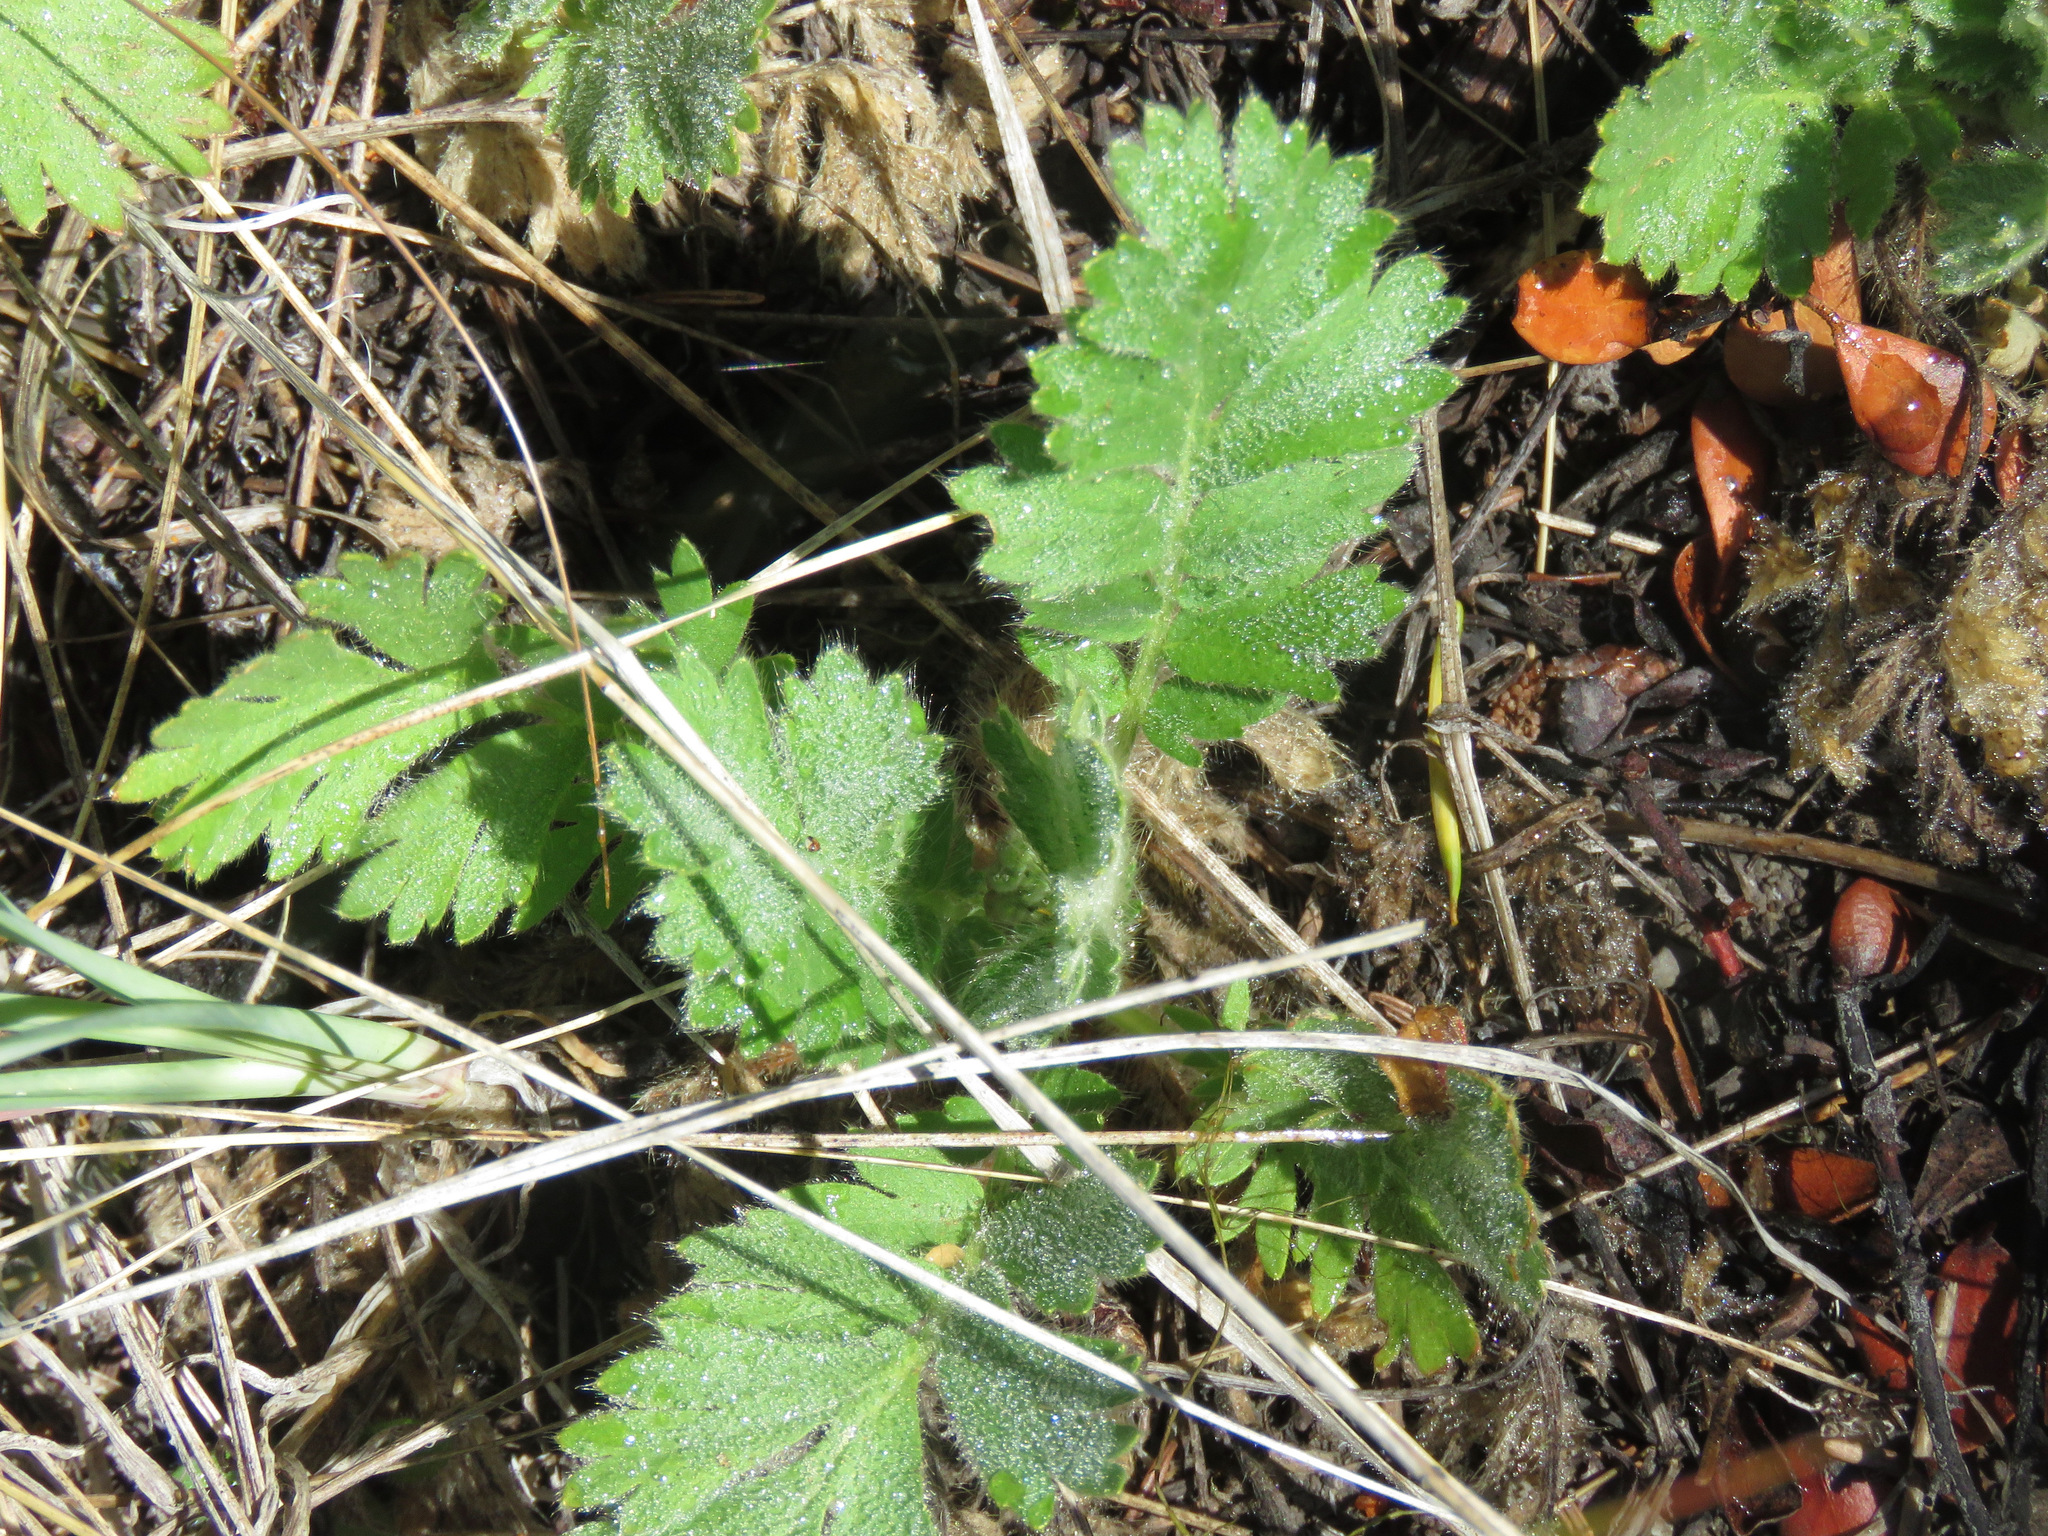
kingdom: Plantae
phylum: Tracheophyta
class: Magnoliopsida
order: Rosales
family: Rosaceae
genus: Geum
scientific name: Geum triflorum
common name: Old man's whiskers
